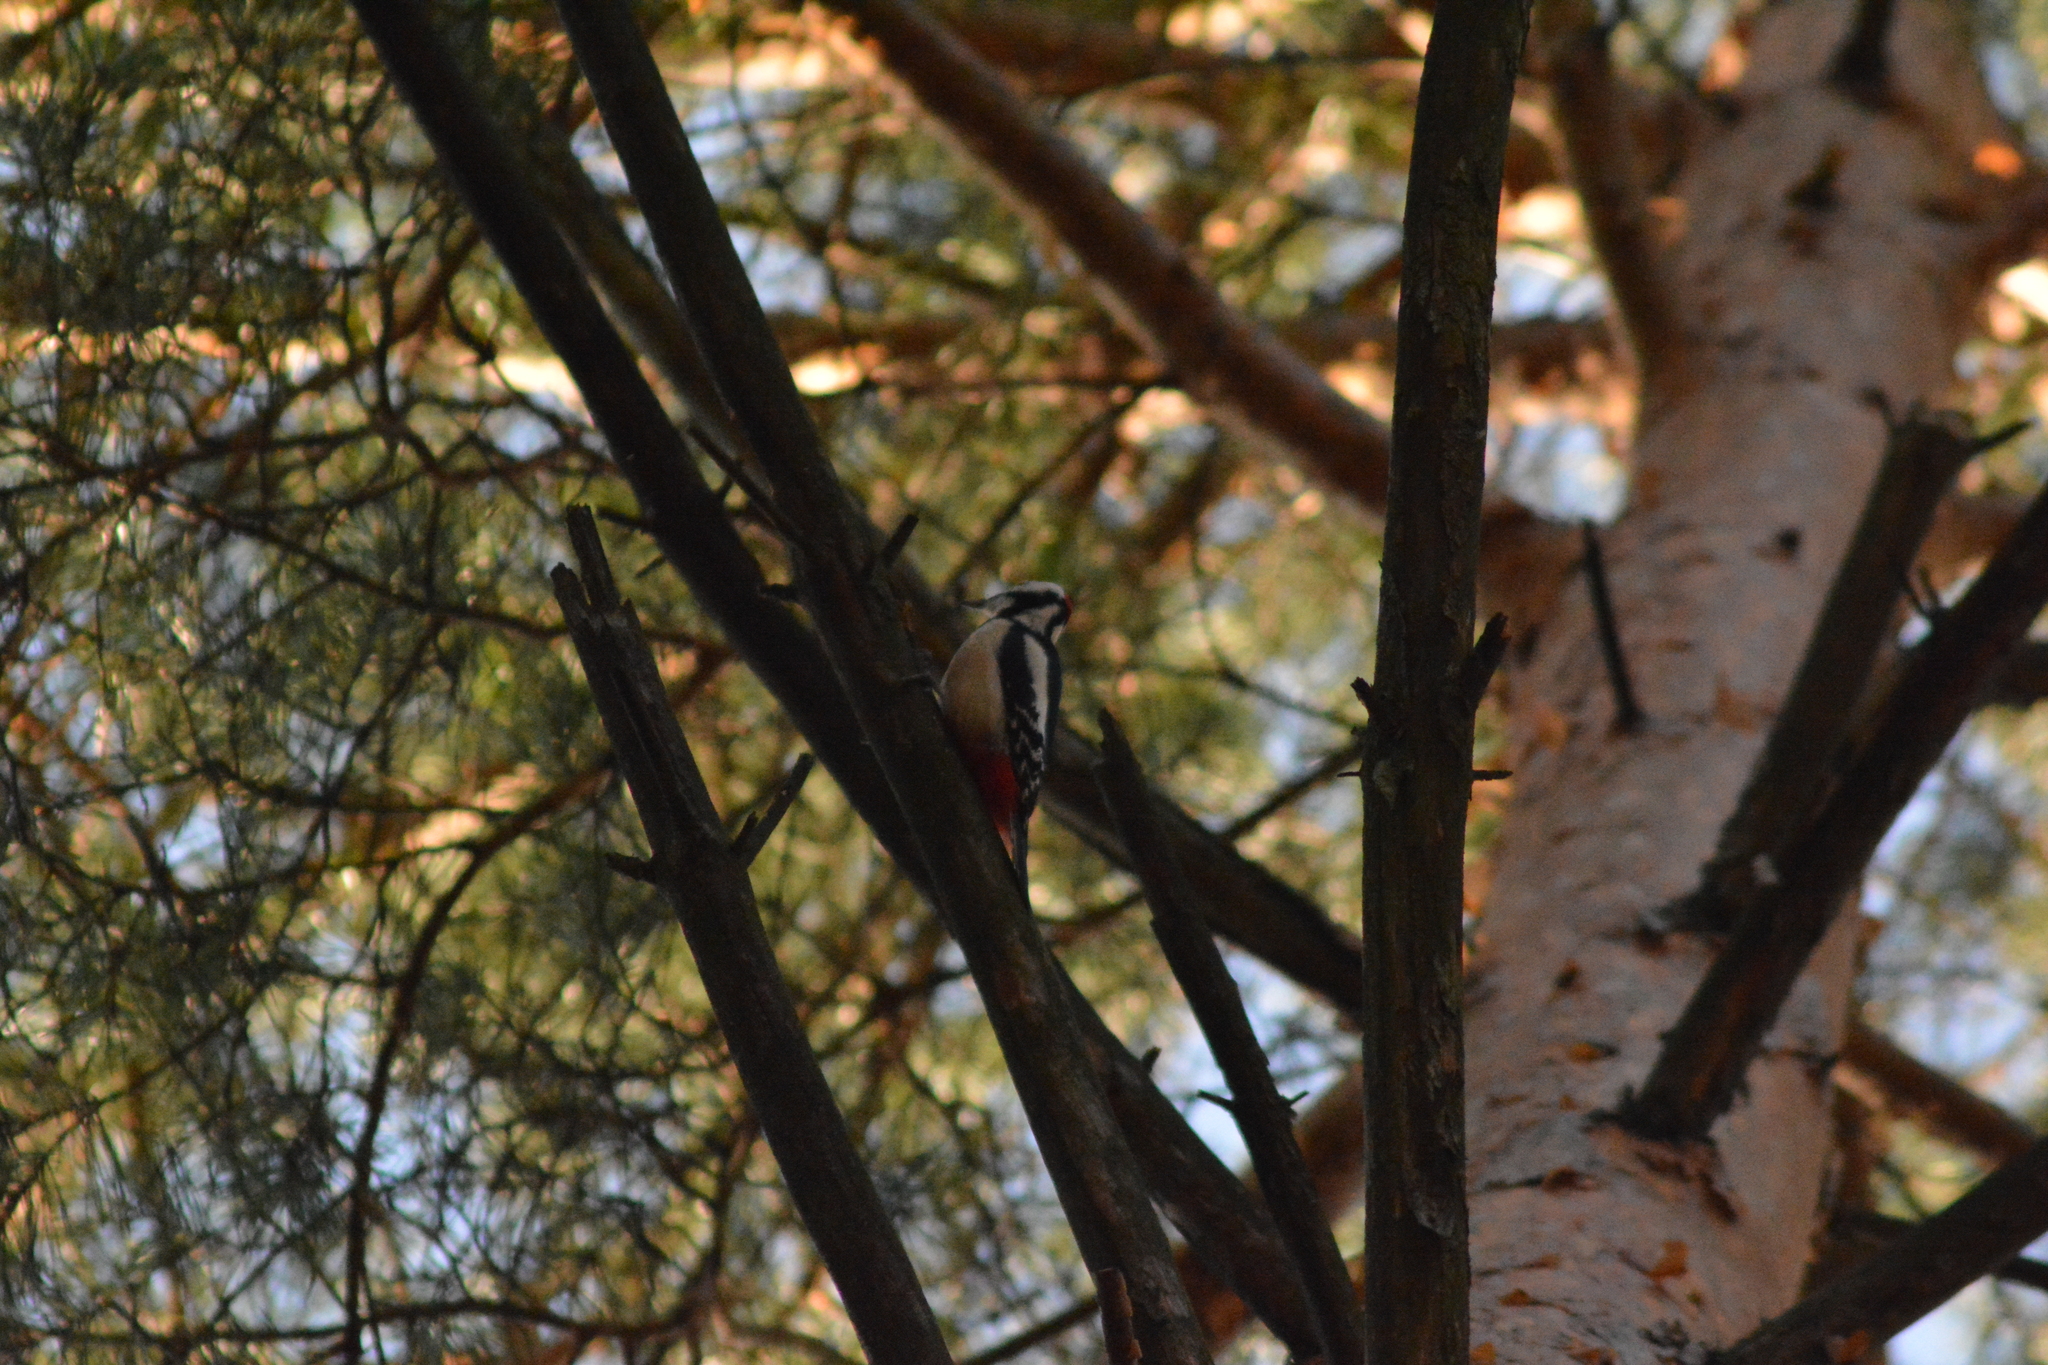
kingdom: Animalia
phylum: Chordata
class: Aves
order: Piciformes
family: Picidae
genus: Dendrocopos
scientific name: Dendrocopos major
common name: Great spotted woodpecker
